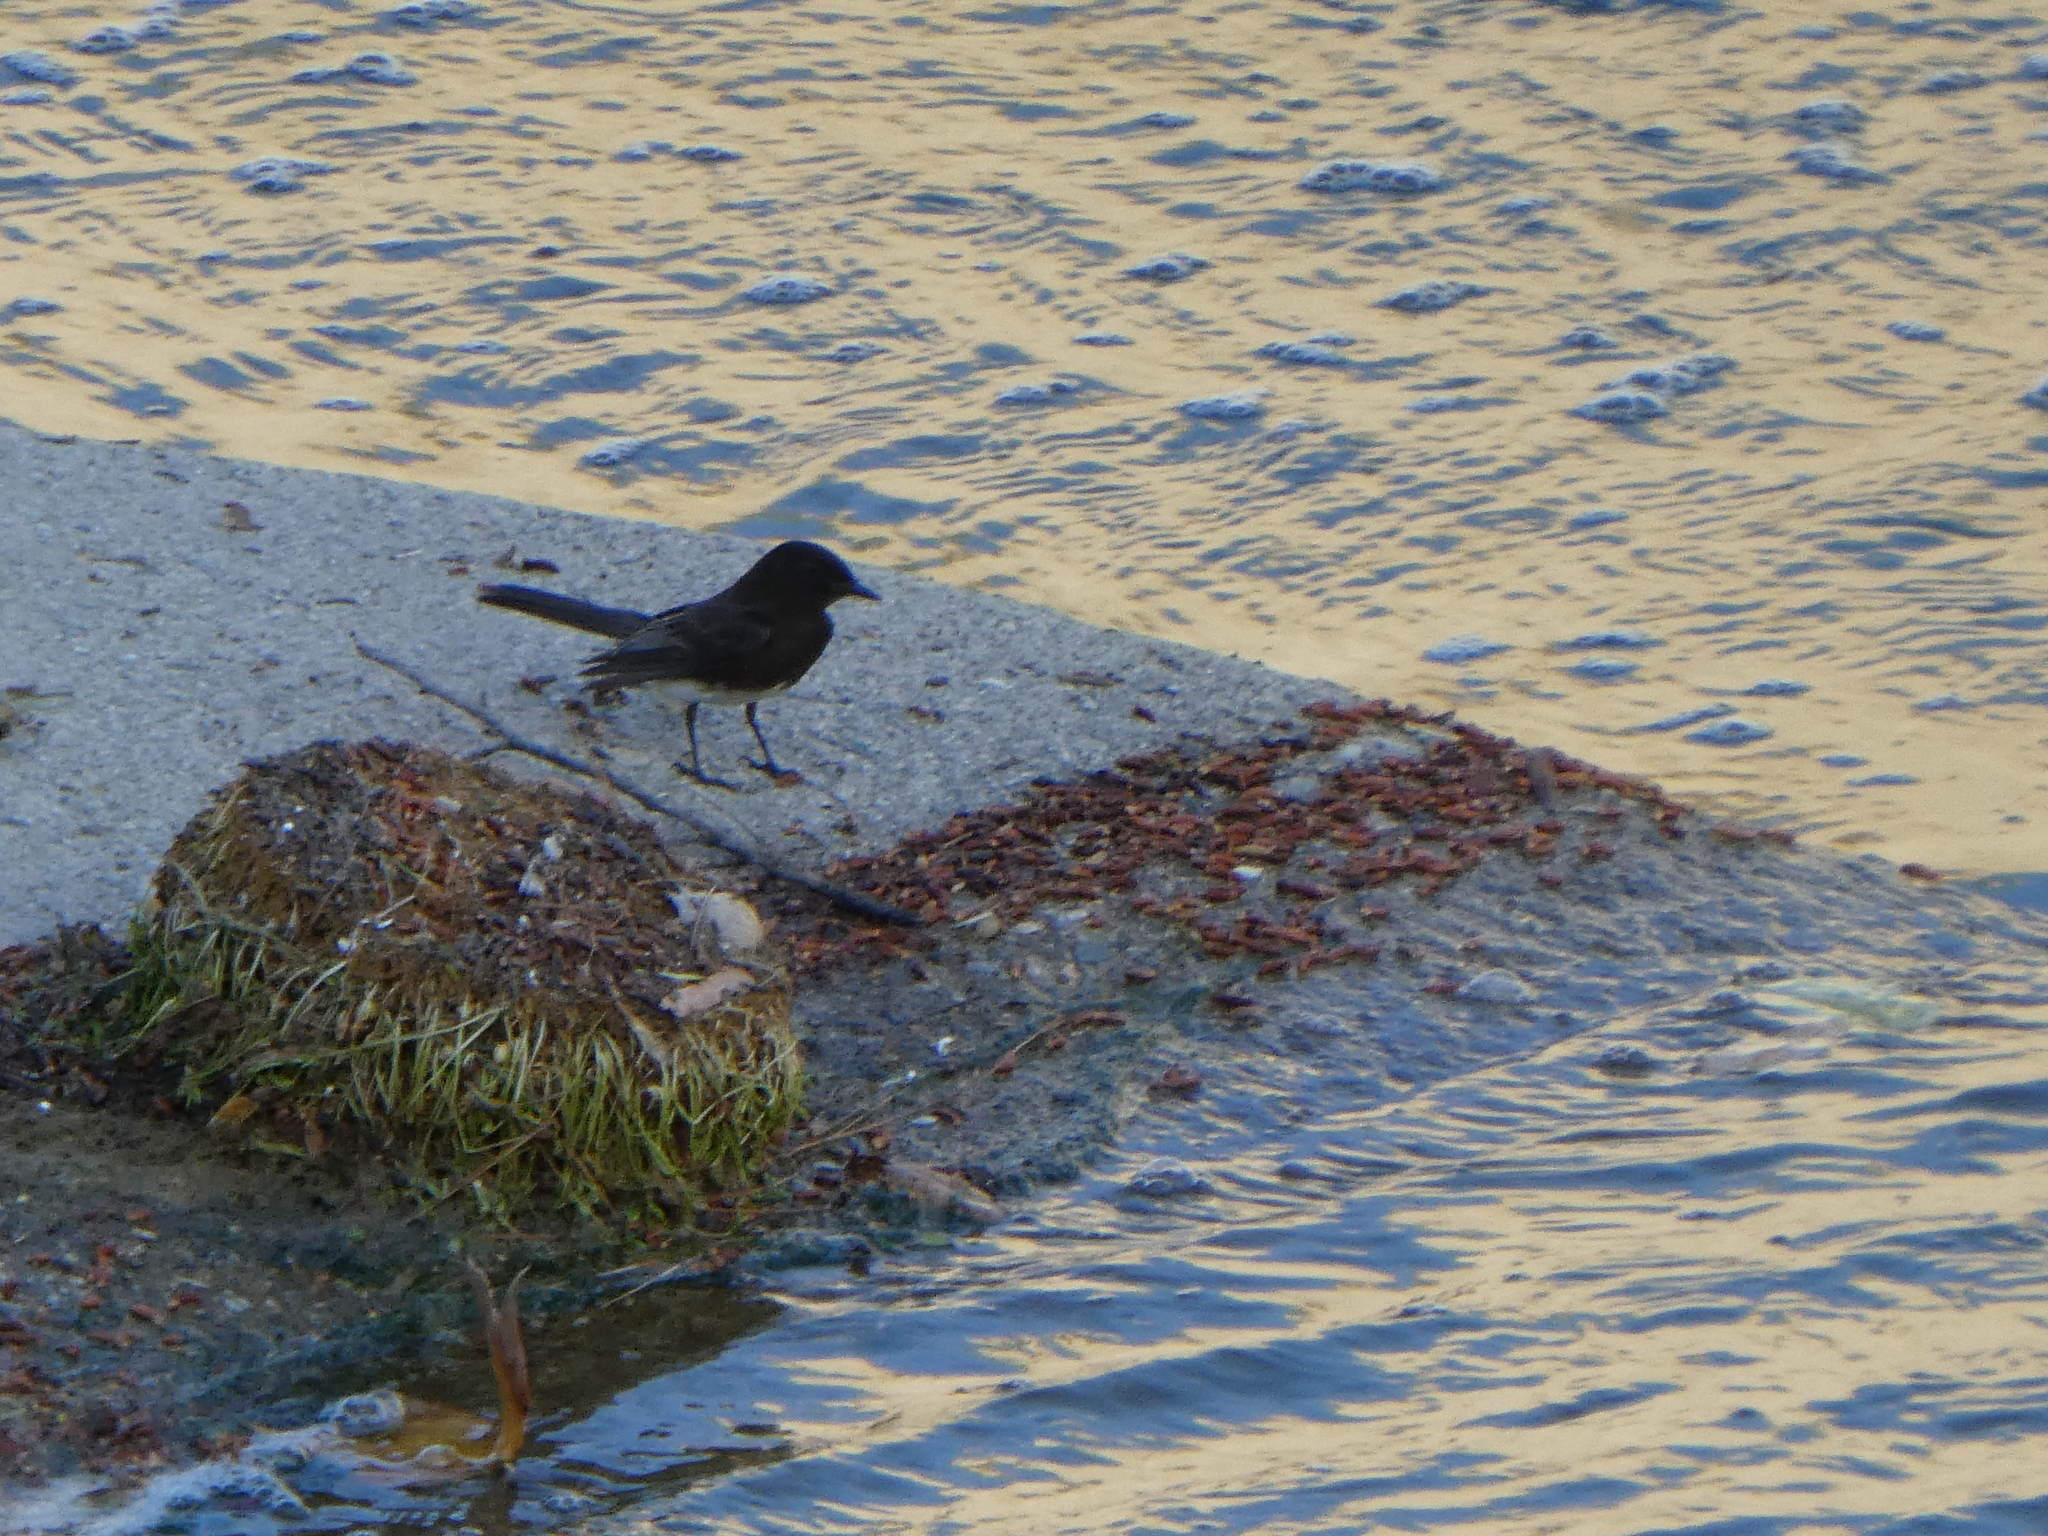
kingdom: Animalia
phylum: Chordata
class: Aves
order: Passeriformes
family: Tyrannidae
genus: Sayornis
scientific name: Sayornis nigricans
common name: Black phoebe
